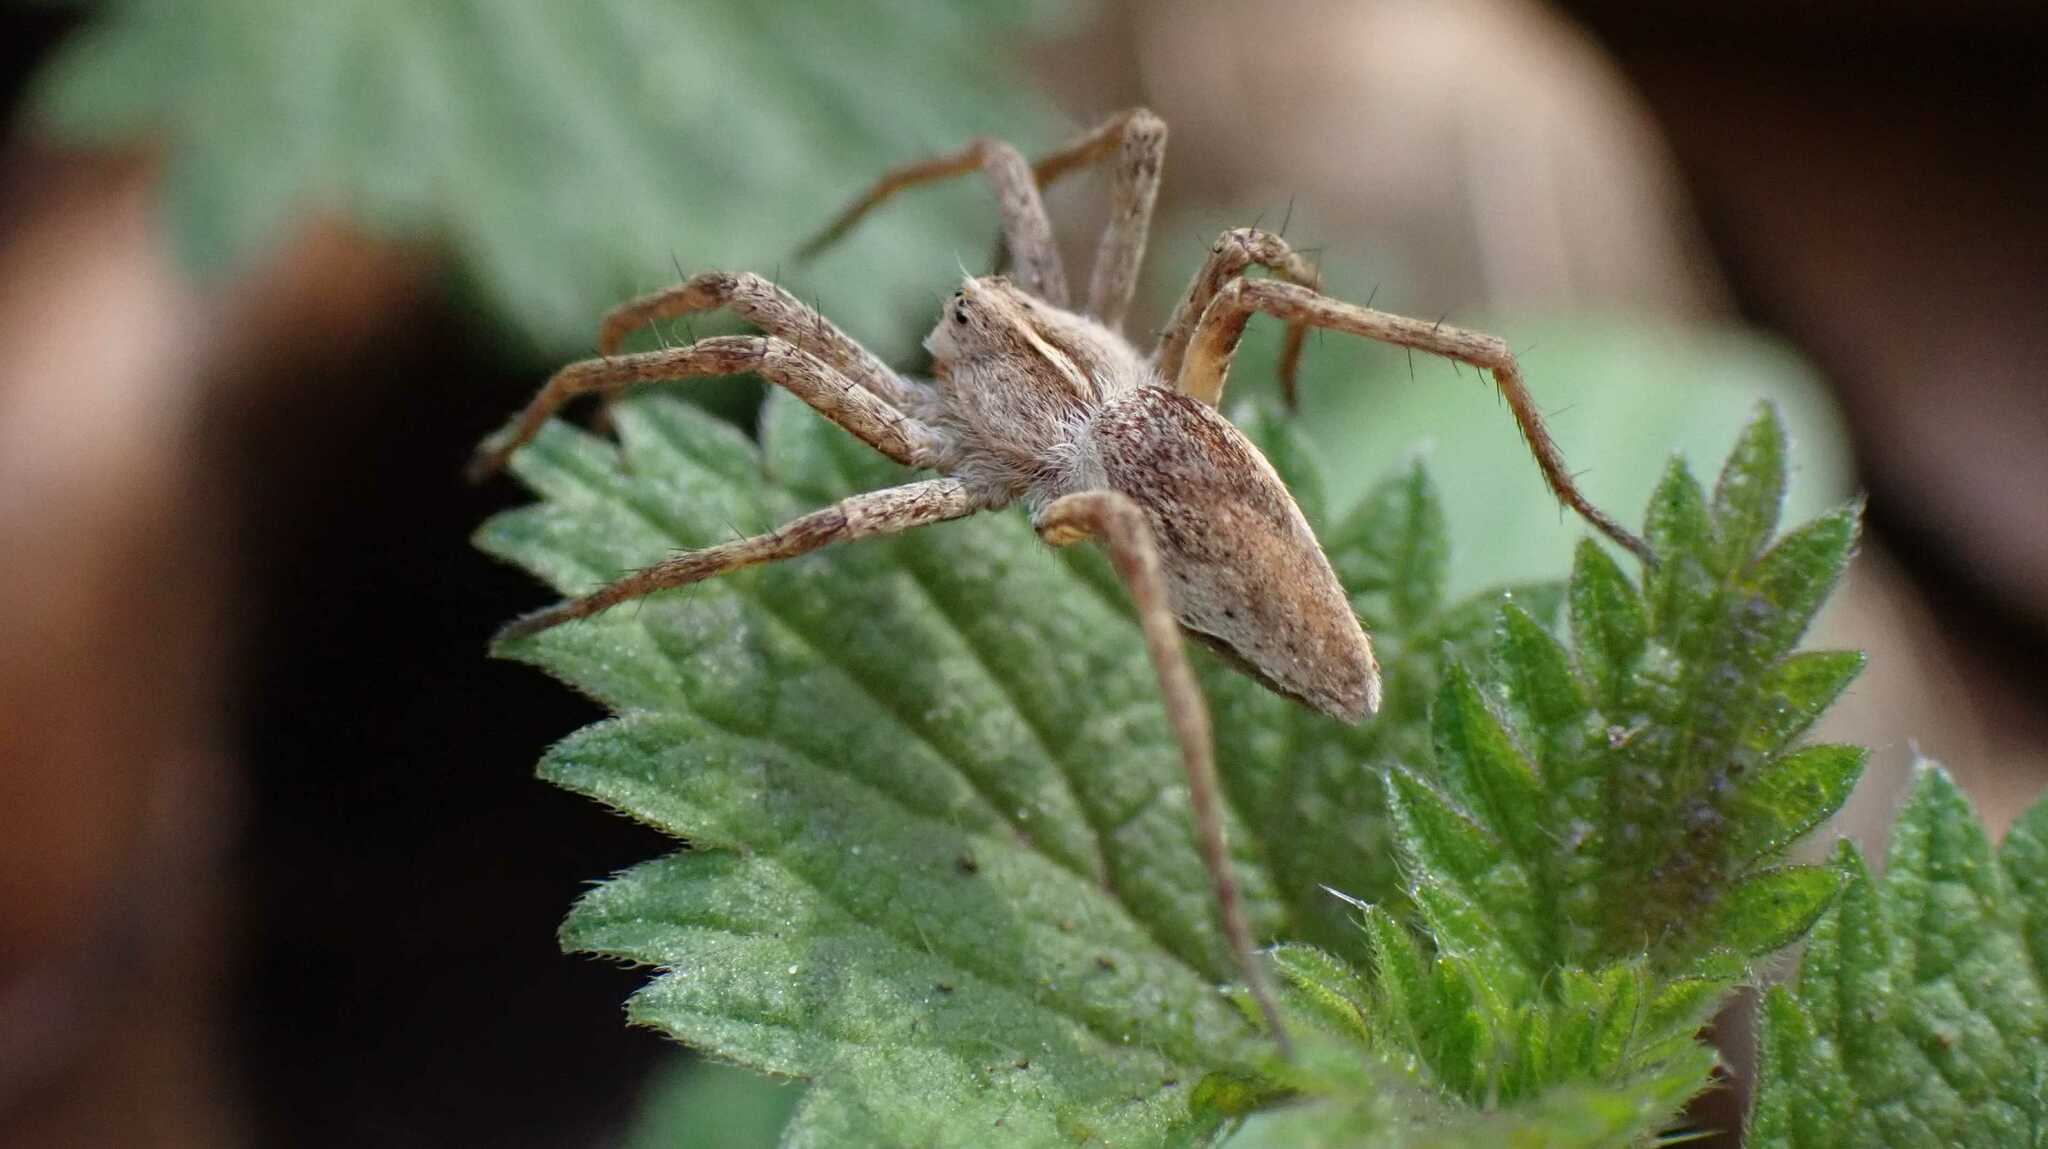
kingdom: Animalia
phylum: Arthropoda
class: Arachnida
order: Araneae
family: Pisauridae
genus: Pisaura
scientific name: Pisaura mirabilis
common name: Tent spider
